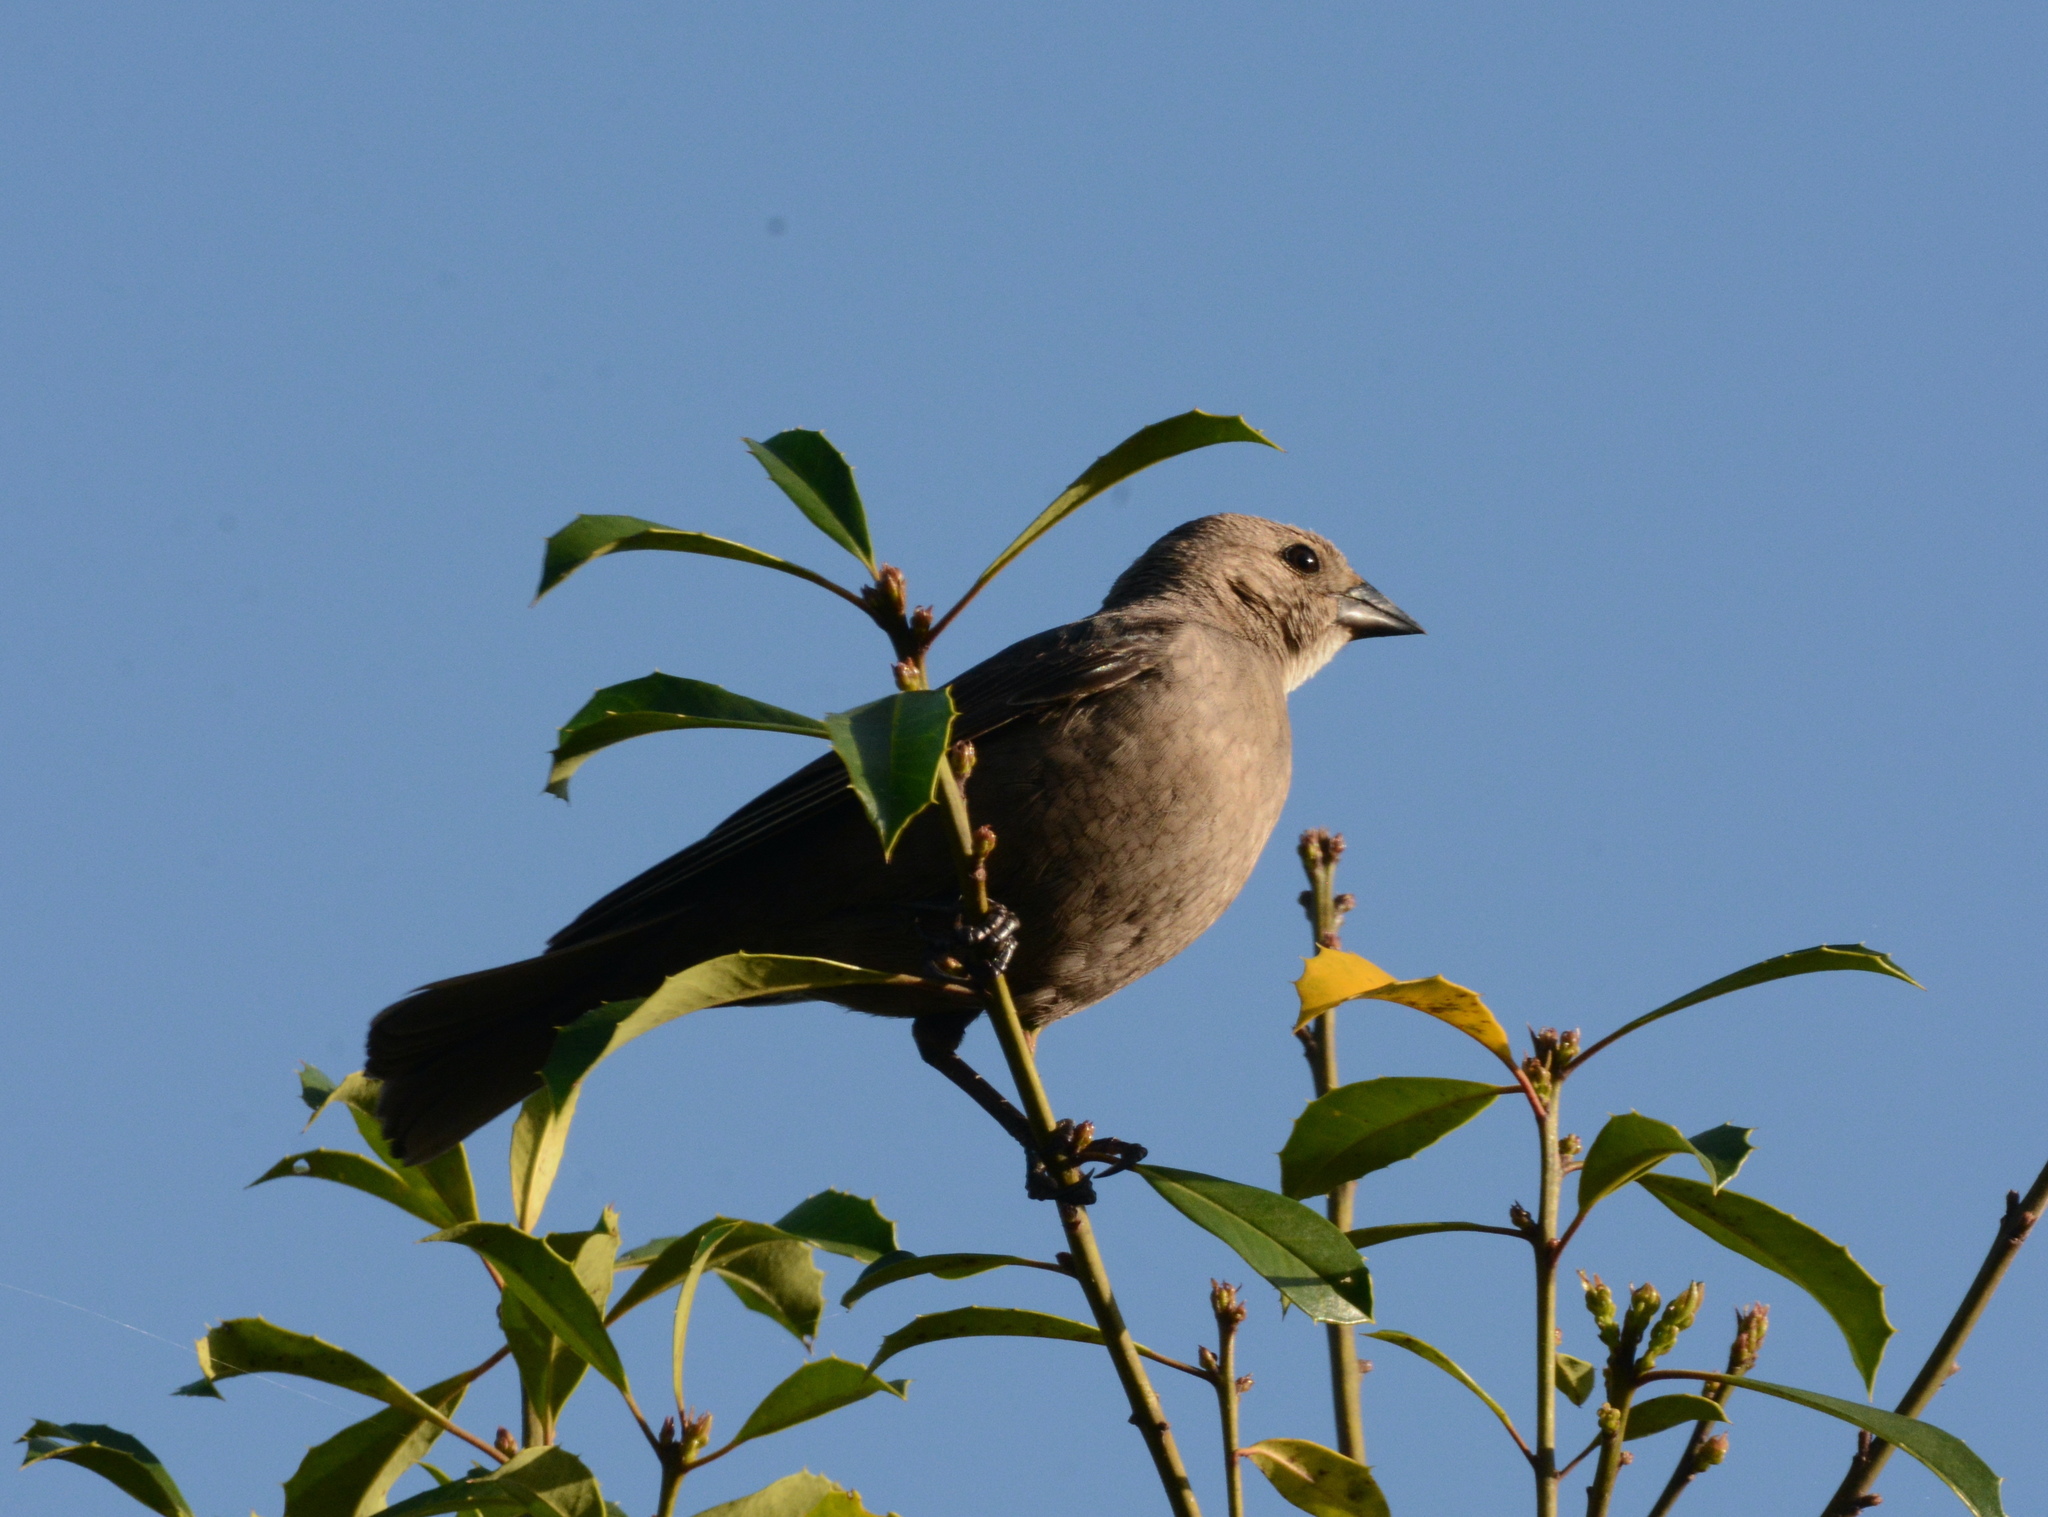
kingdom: Animalia
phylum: Chordata
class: Aves
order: Passeriformes
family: Icteridae
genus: Molothrus
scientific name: Molothrus ater
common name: Brown-headed cowbird
